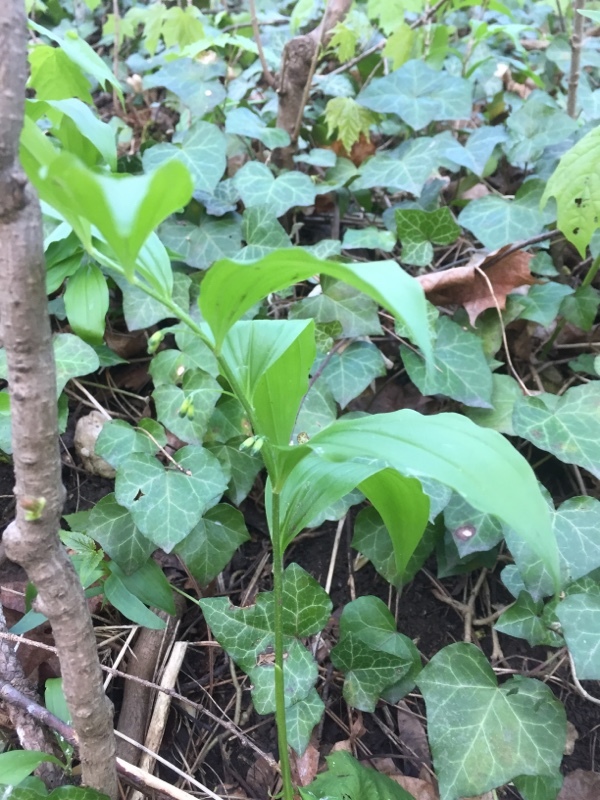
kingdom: Plantae
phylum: Tracheophyta
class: Liliopsida
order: Asparagales
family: Asparagaceae
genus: Polygonatum
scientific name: Polygonatum multiflorum
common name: Solomon's-seal
